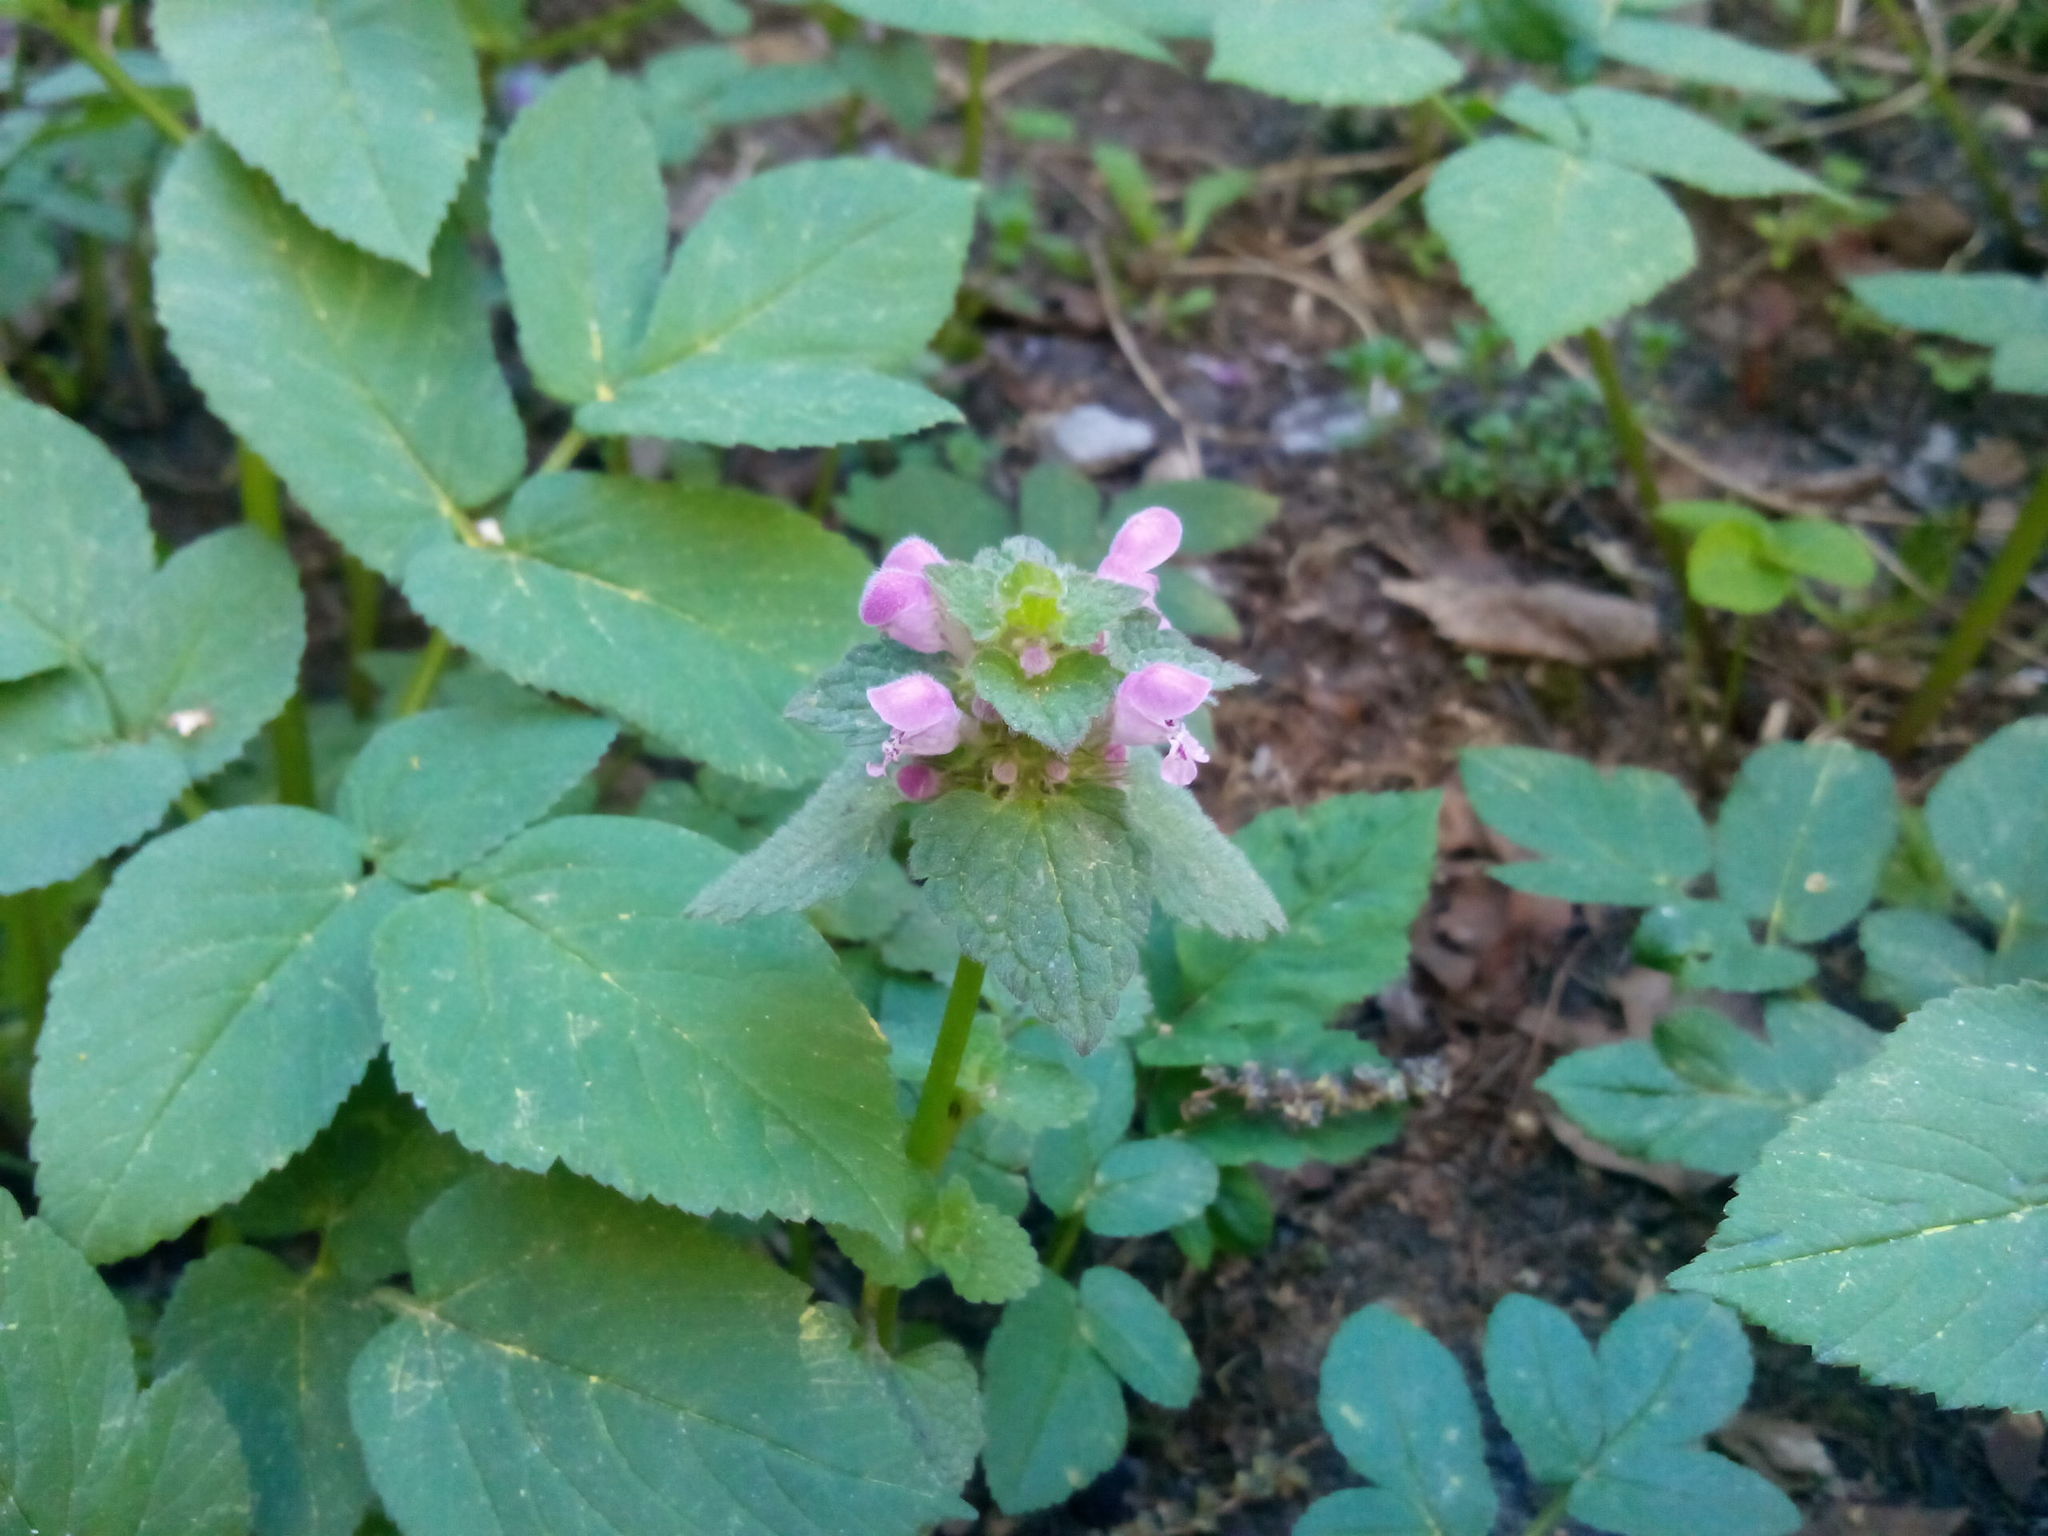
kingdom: Plantae
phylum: Tracheophyta
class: Magnoliopsida
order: Lamiales
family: Lamiaceae
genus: Lamium
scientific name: Lamium purpureum
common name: Red dead-nettle
